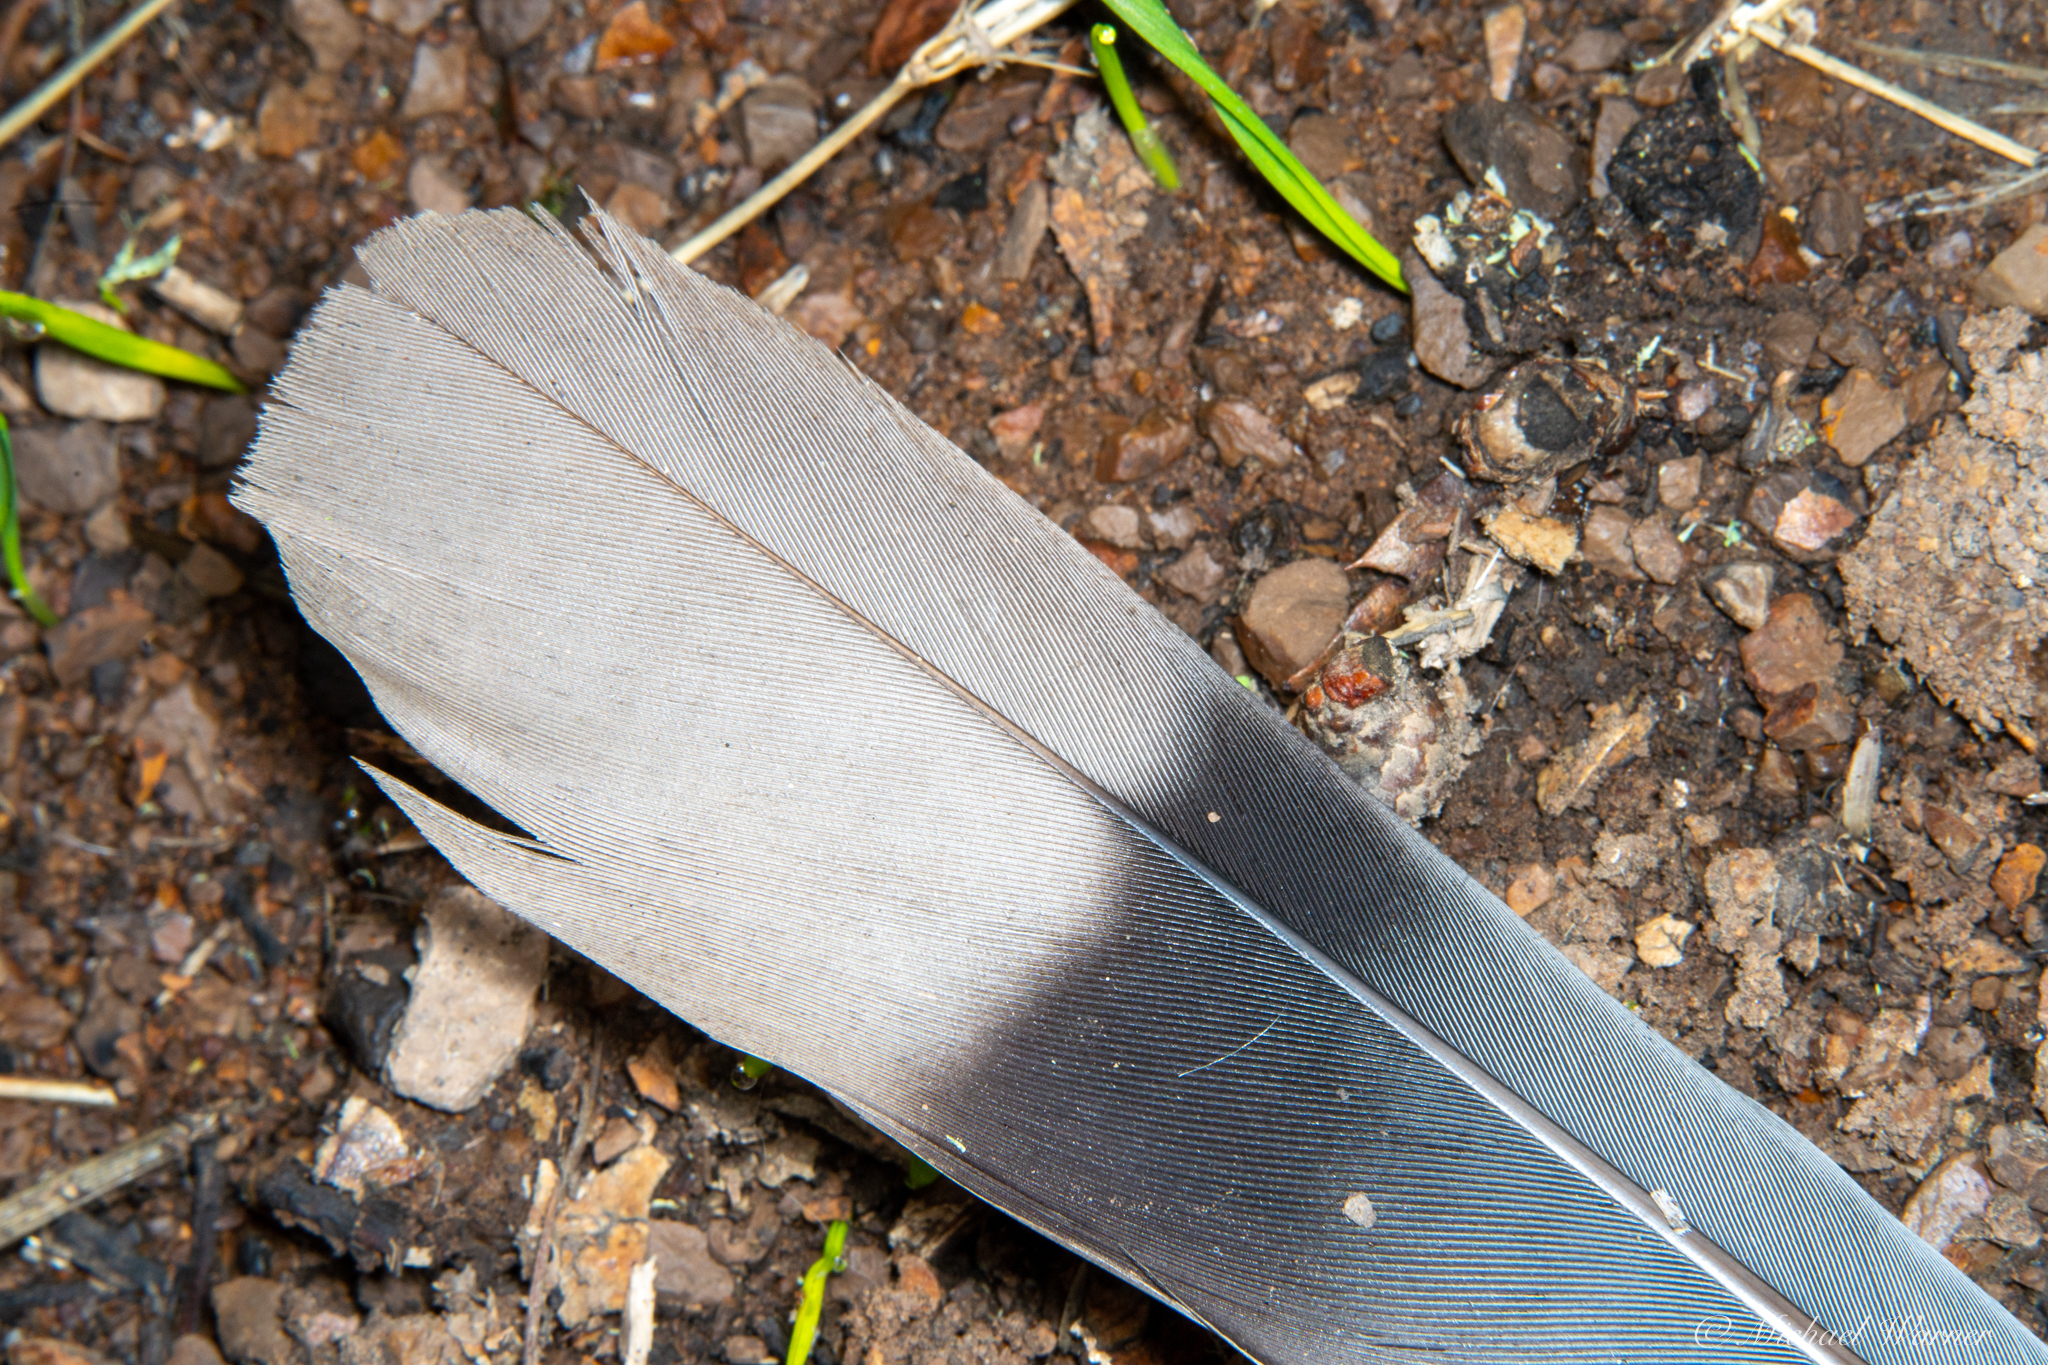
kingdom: Animalia
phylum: Chordata
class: Aves
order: Columbiformes
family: Columbidae
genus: Patagioenas
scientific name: Patagioenas fasciata
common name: Band-tailed pigeon
